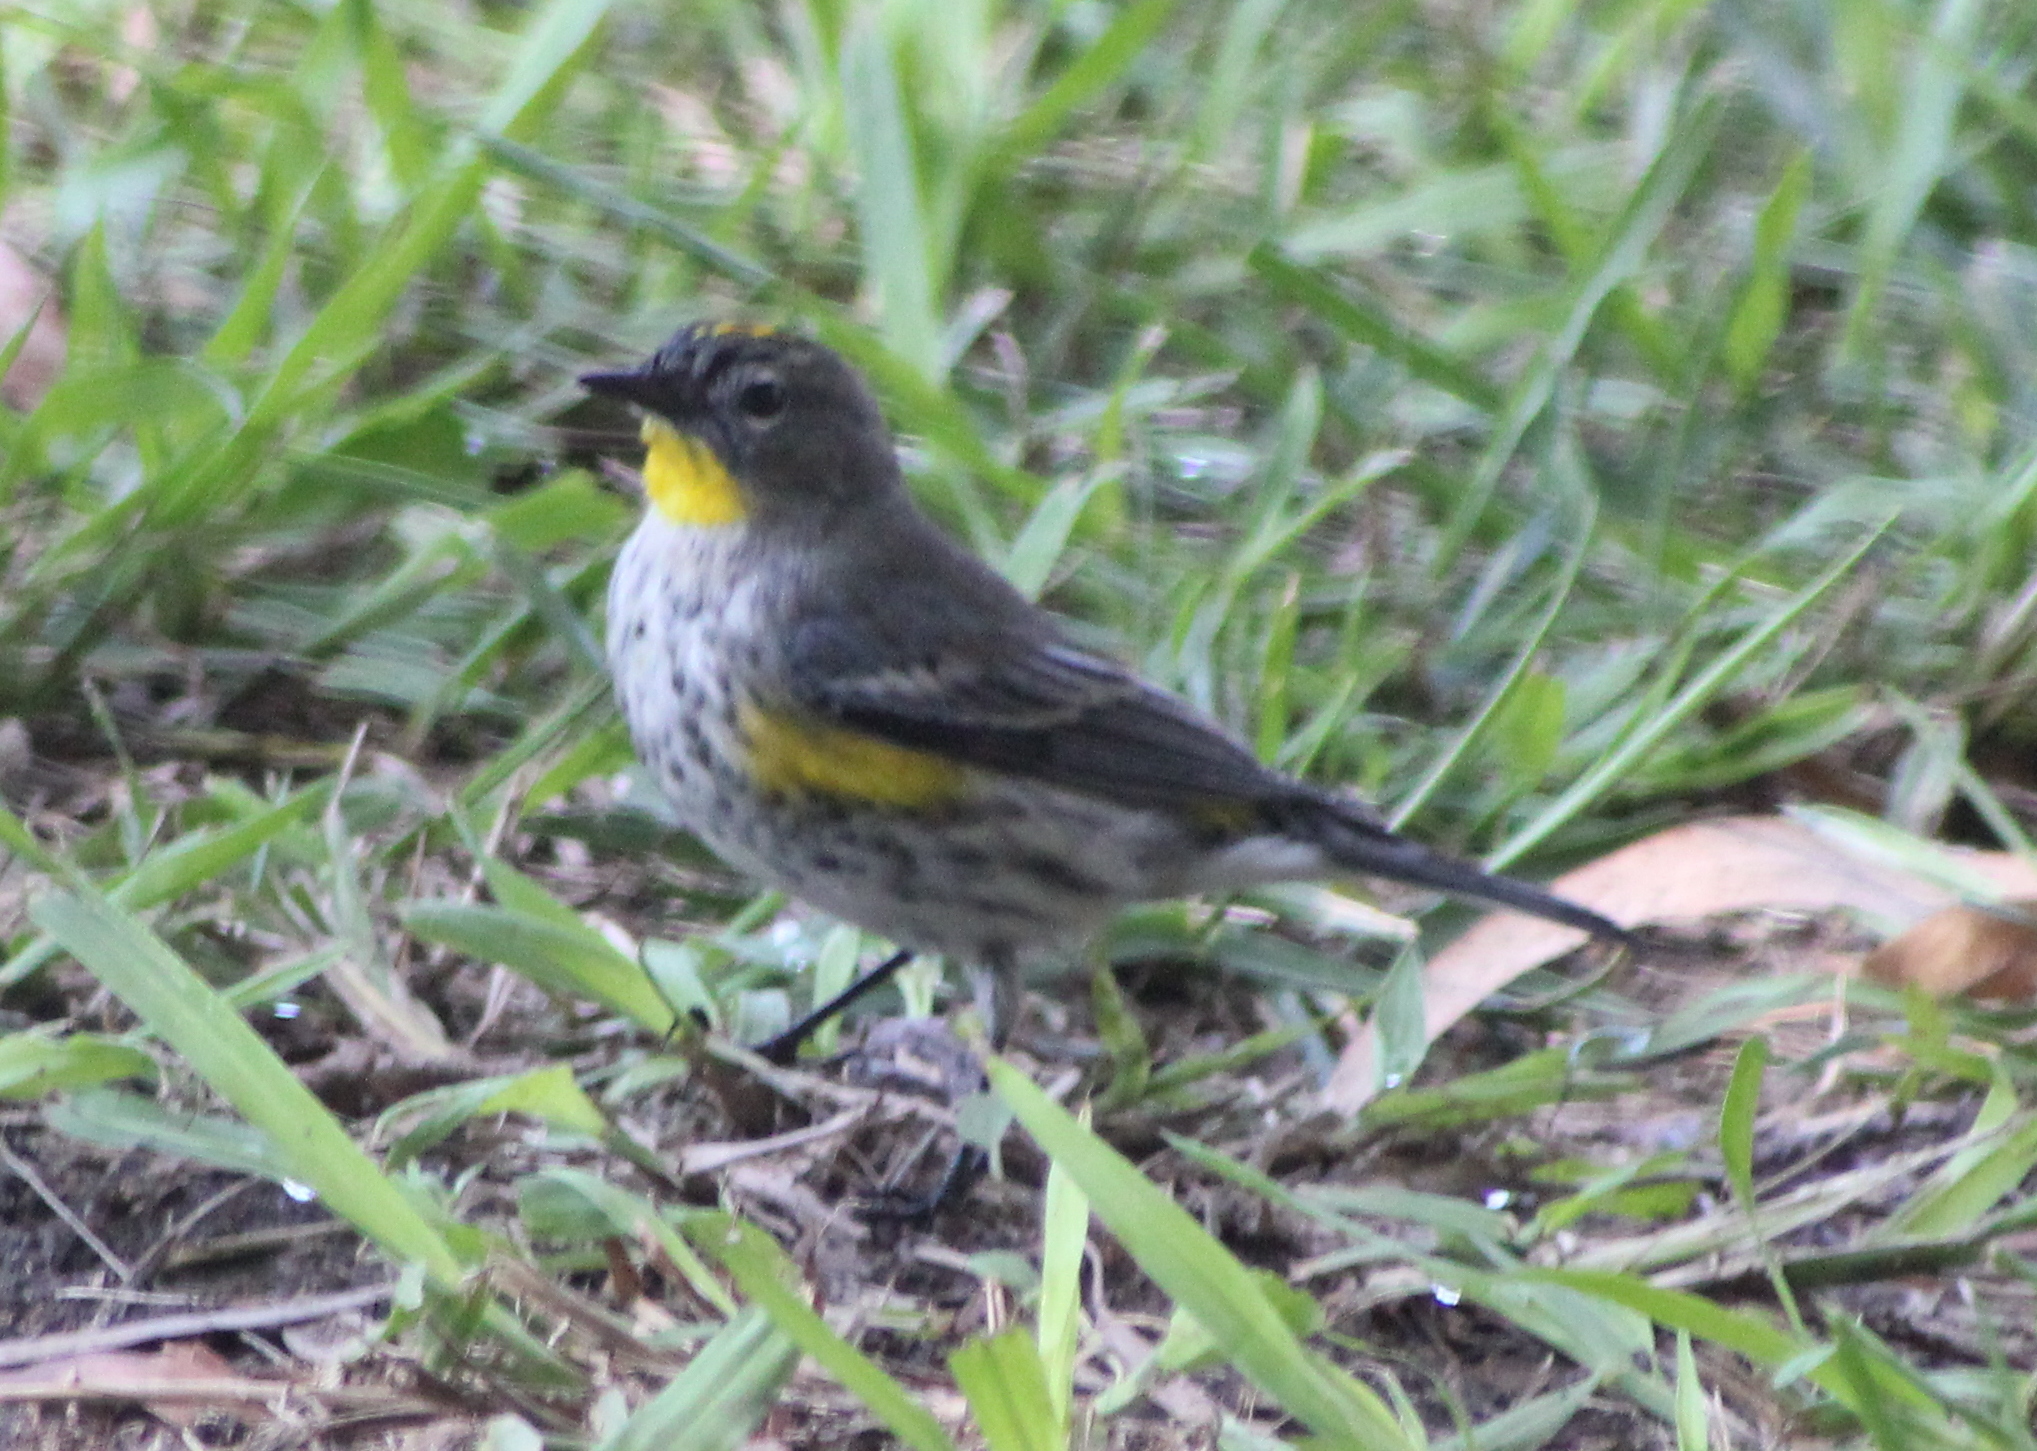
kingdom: Animalia
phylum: Chordata
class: Aves
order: Passeriformes
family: Parulidae
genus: Setophaga
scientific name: Setophaga auduboni
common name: Audubon's warbler
